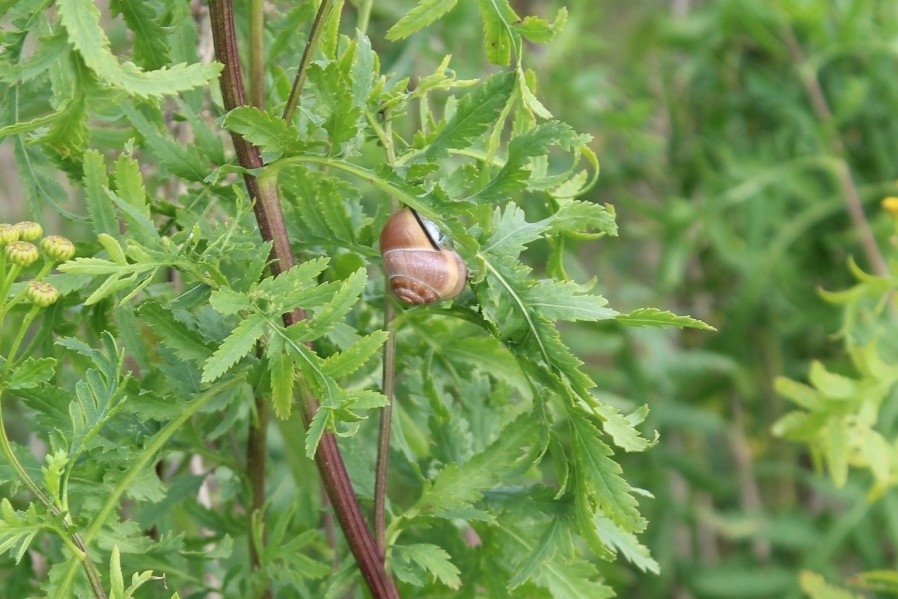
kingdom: Animalia
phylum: Mollusca
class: Gastropoda
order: Stylommatophora
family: Helicidae
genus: Cepaea
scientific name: Cepaea nemoralis
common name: Grovesnail
